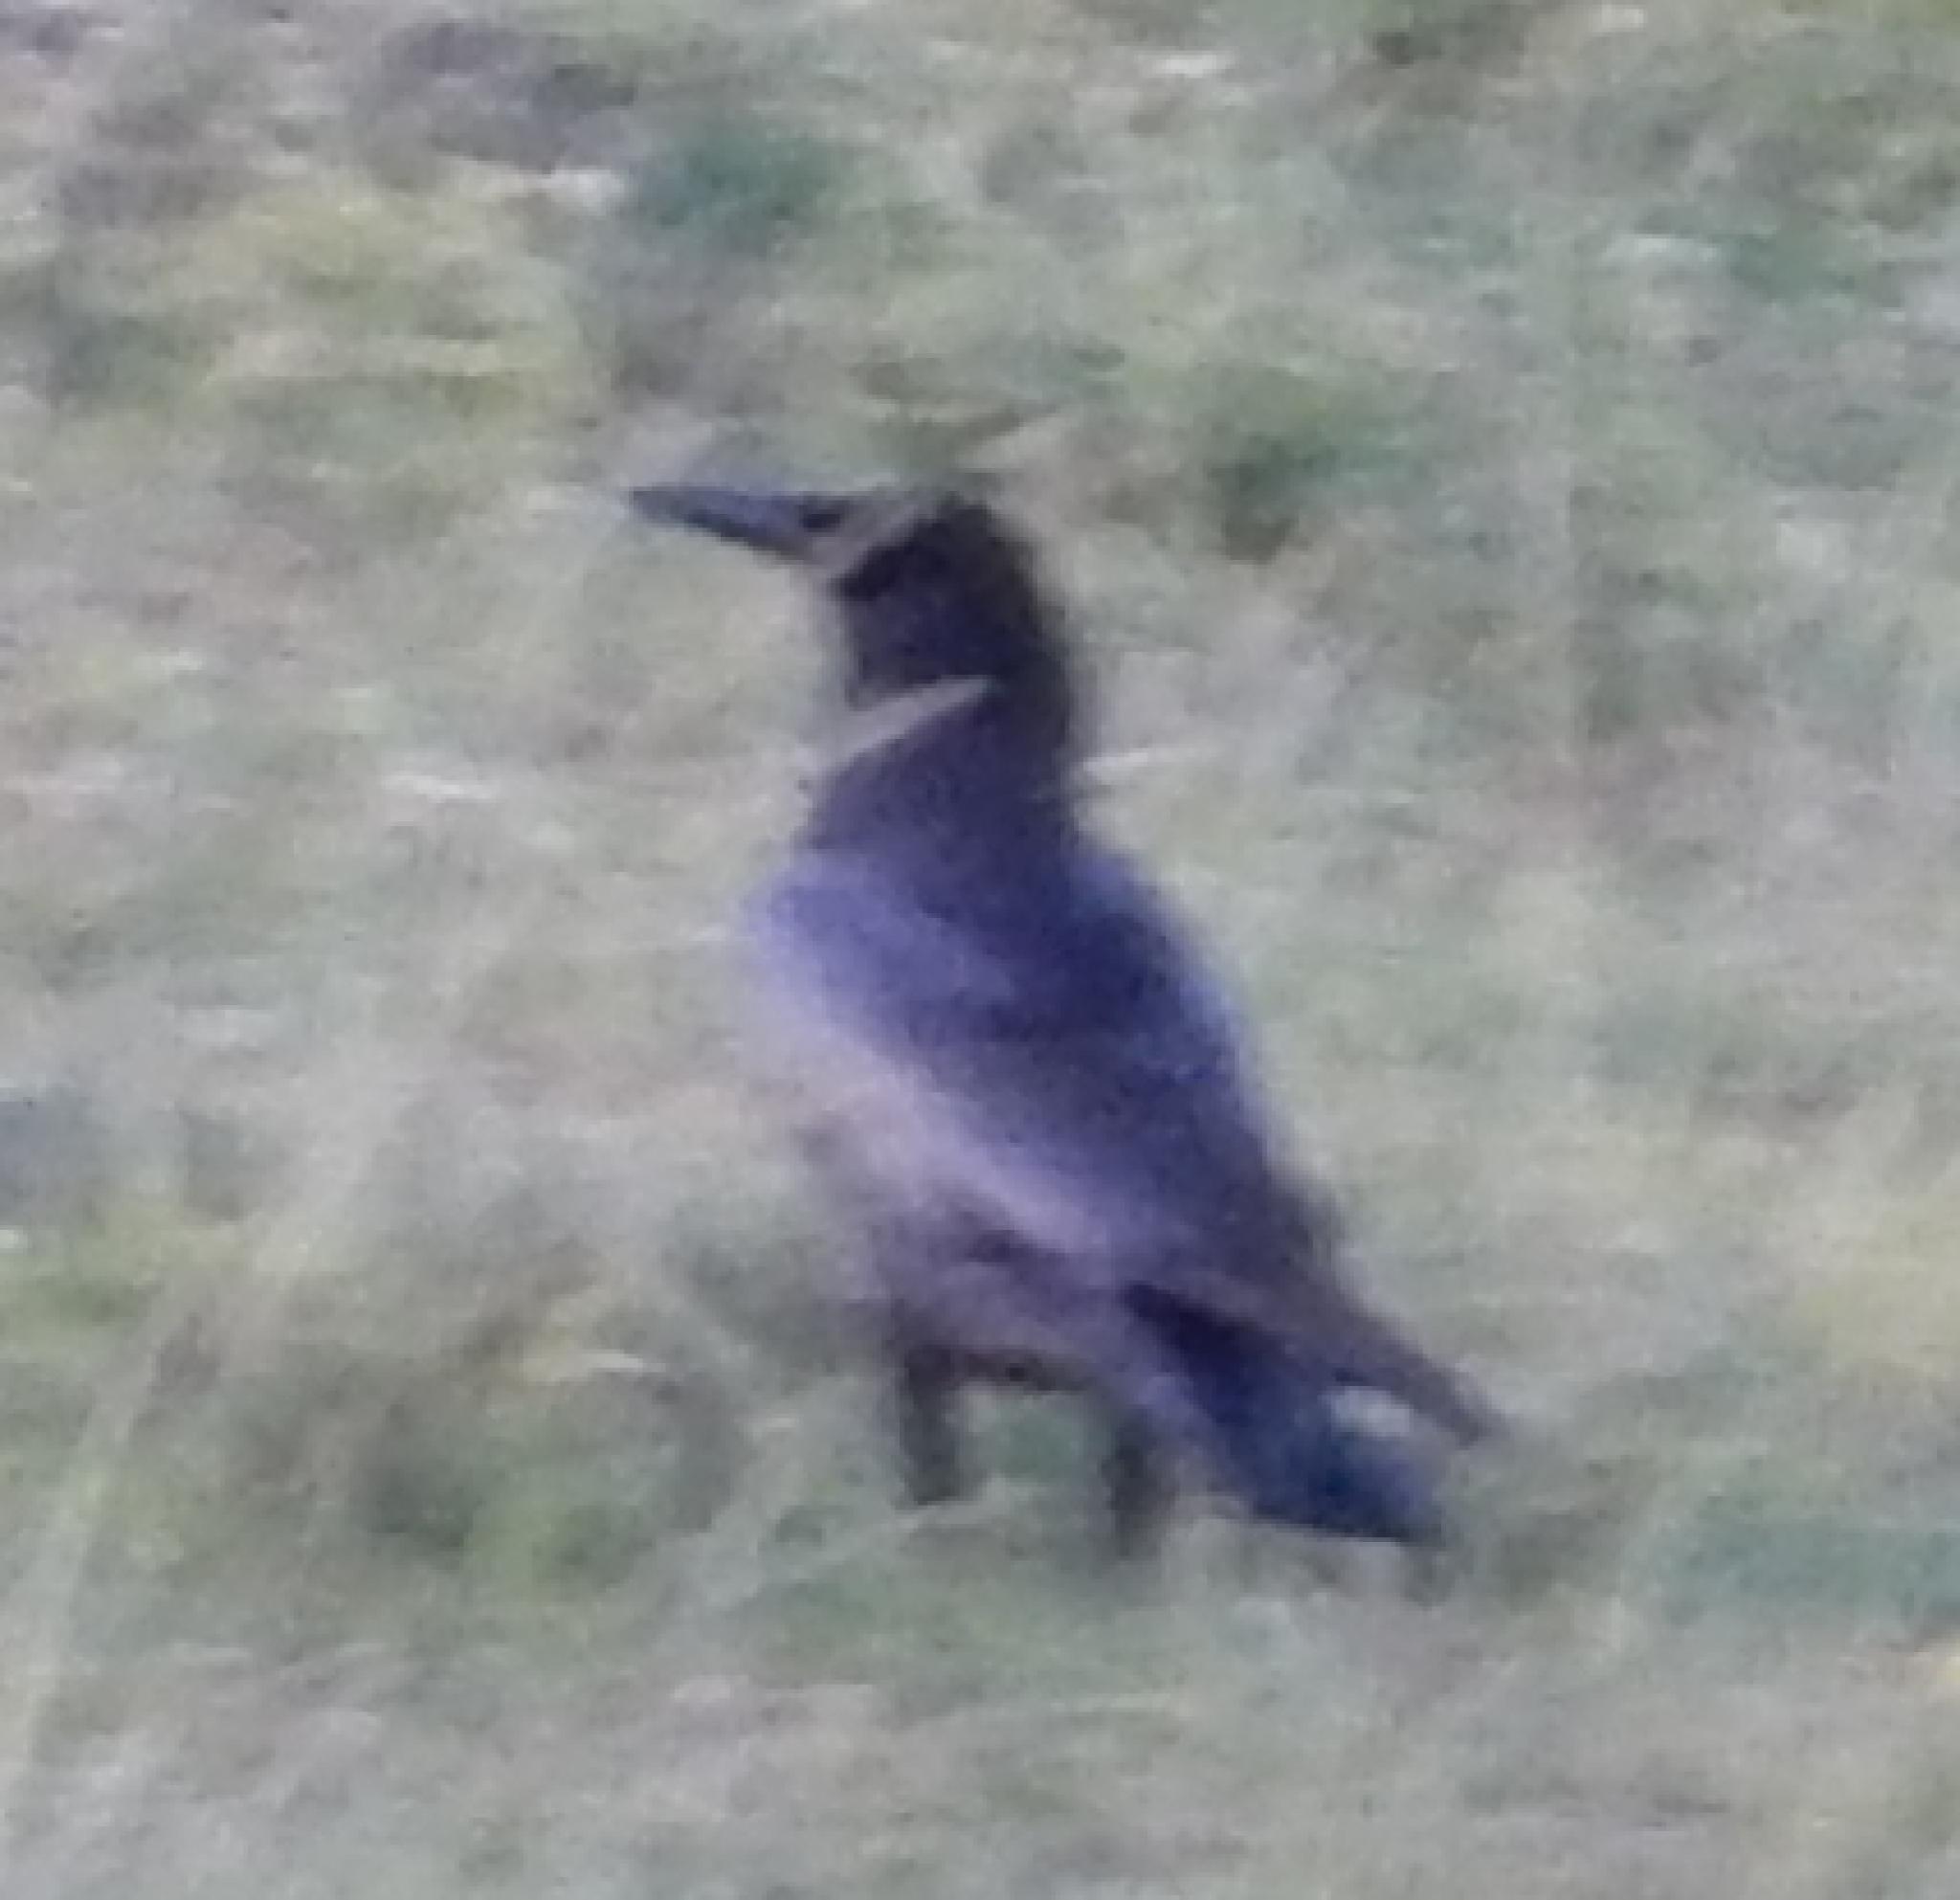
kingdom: Animalia
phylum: Chordata
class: Aves
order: Passeriformes
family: Corvidae
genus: Corvus
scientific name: Corvus capensis
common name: Cape crow
